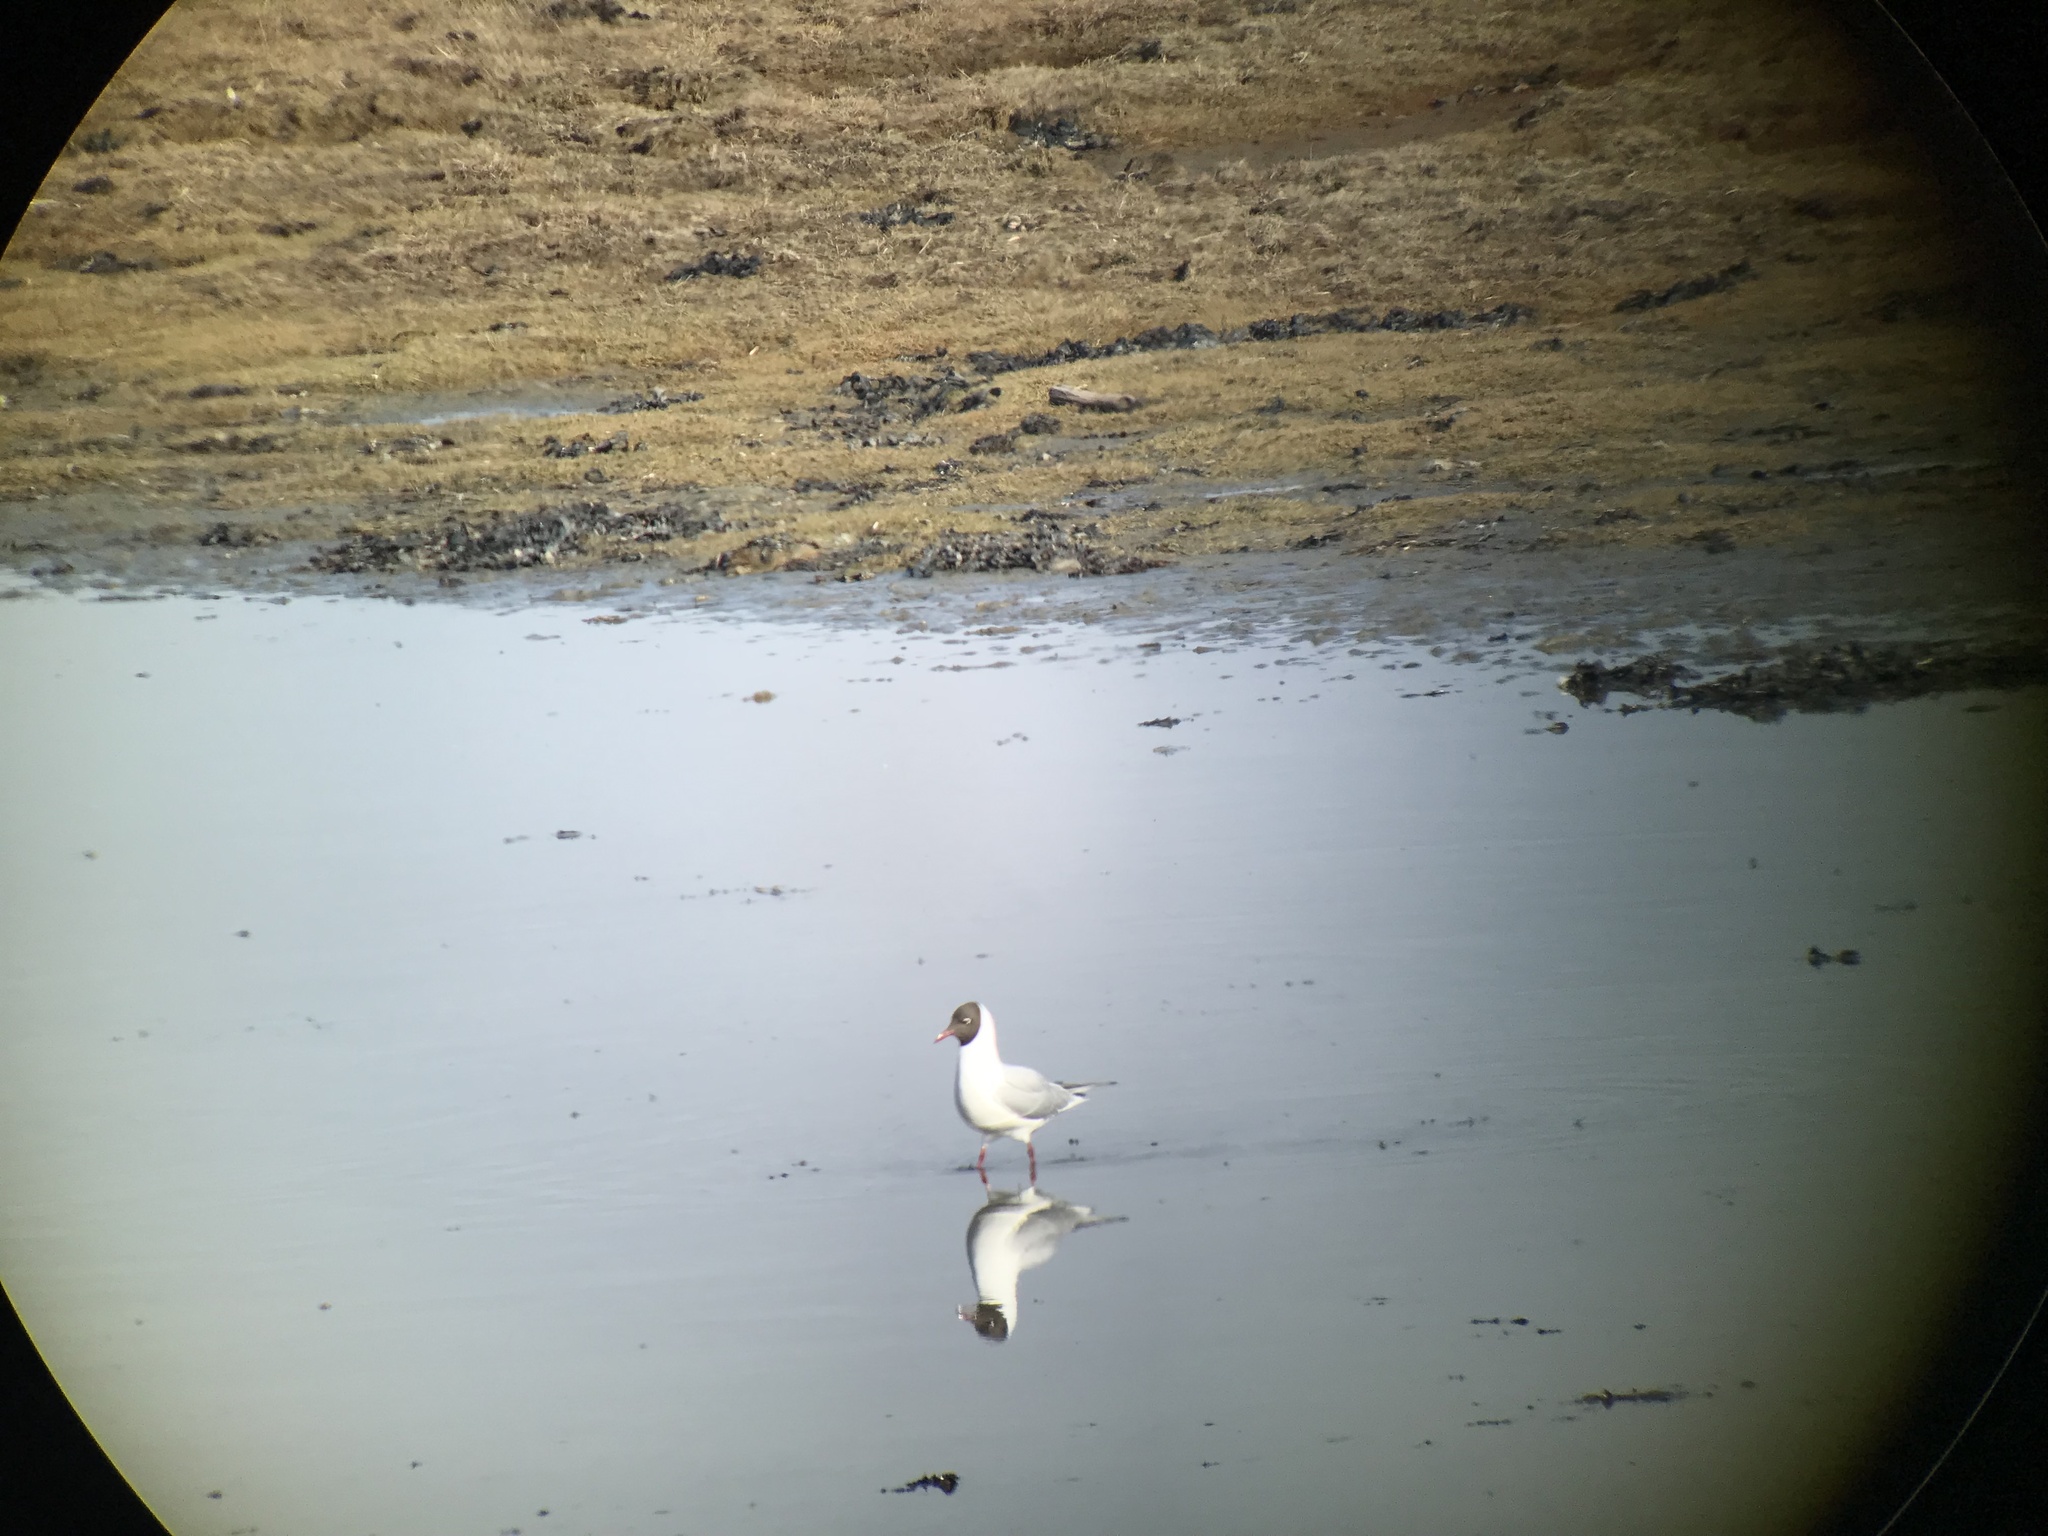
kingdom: Animalia
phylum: Chordata
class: Aves
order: Charadriiformes
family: Laridae
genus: Chroicocephalus
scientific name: Chroicocephalus ridibundus
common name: Black-headed gull
